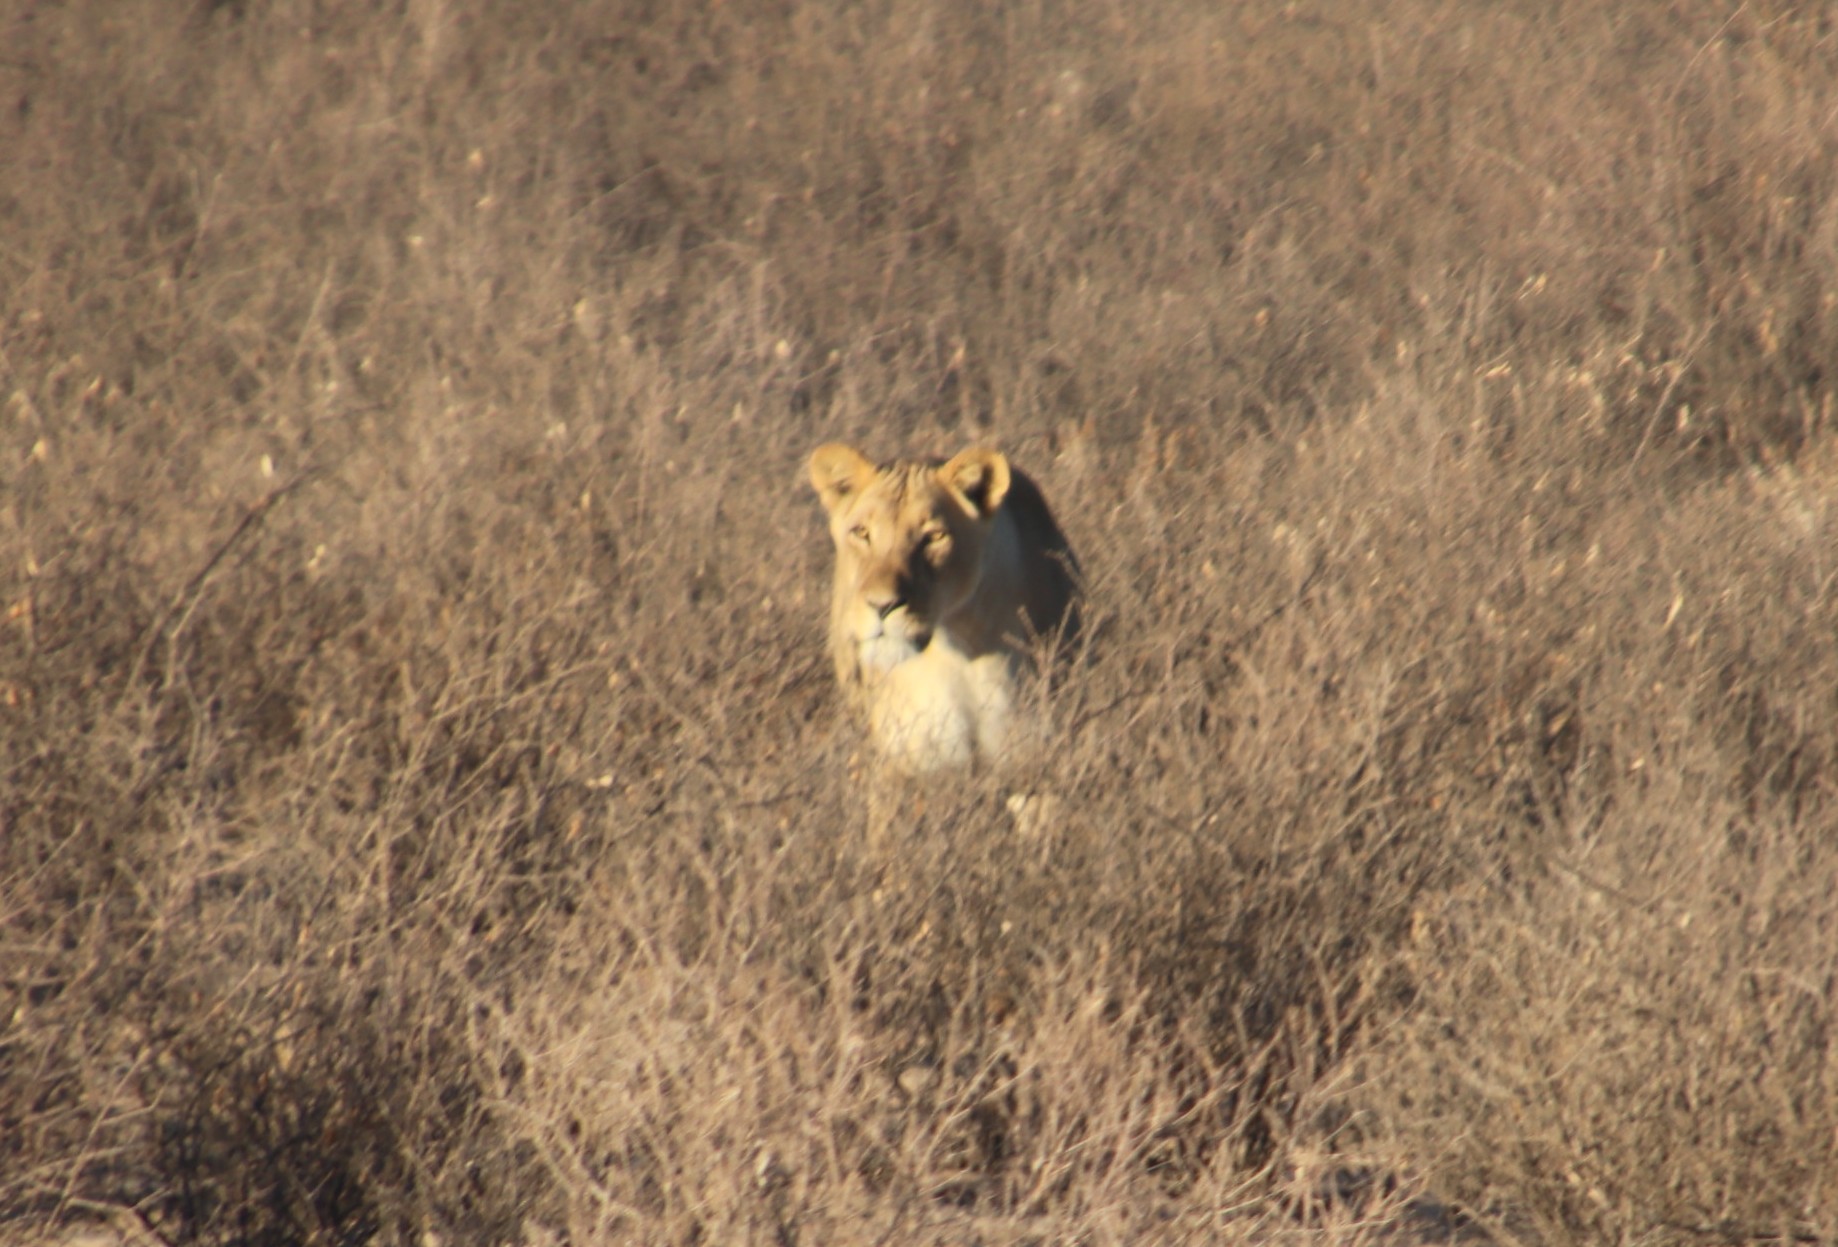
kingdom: Animalia
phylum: Chordata
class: Mammalia
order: Carnivora
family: Felidae
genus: Panthera
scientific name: Panthera leo
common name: Lion
